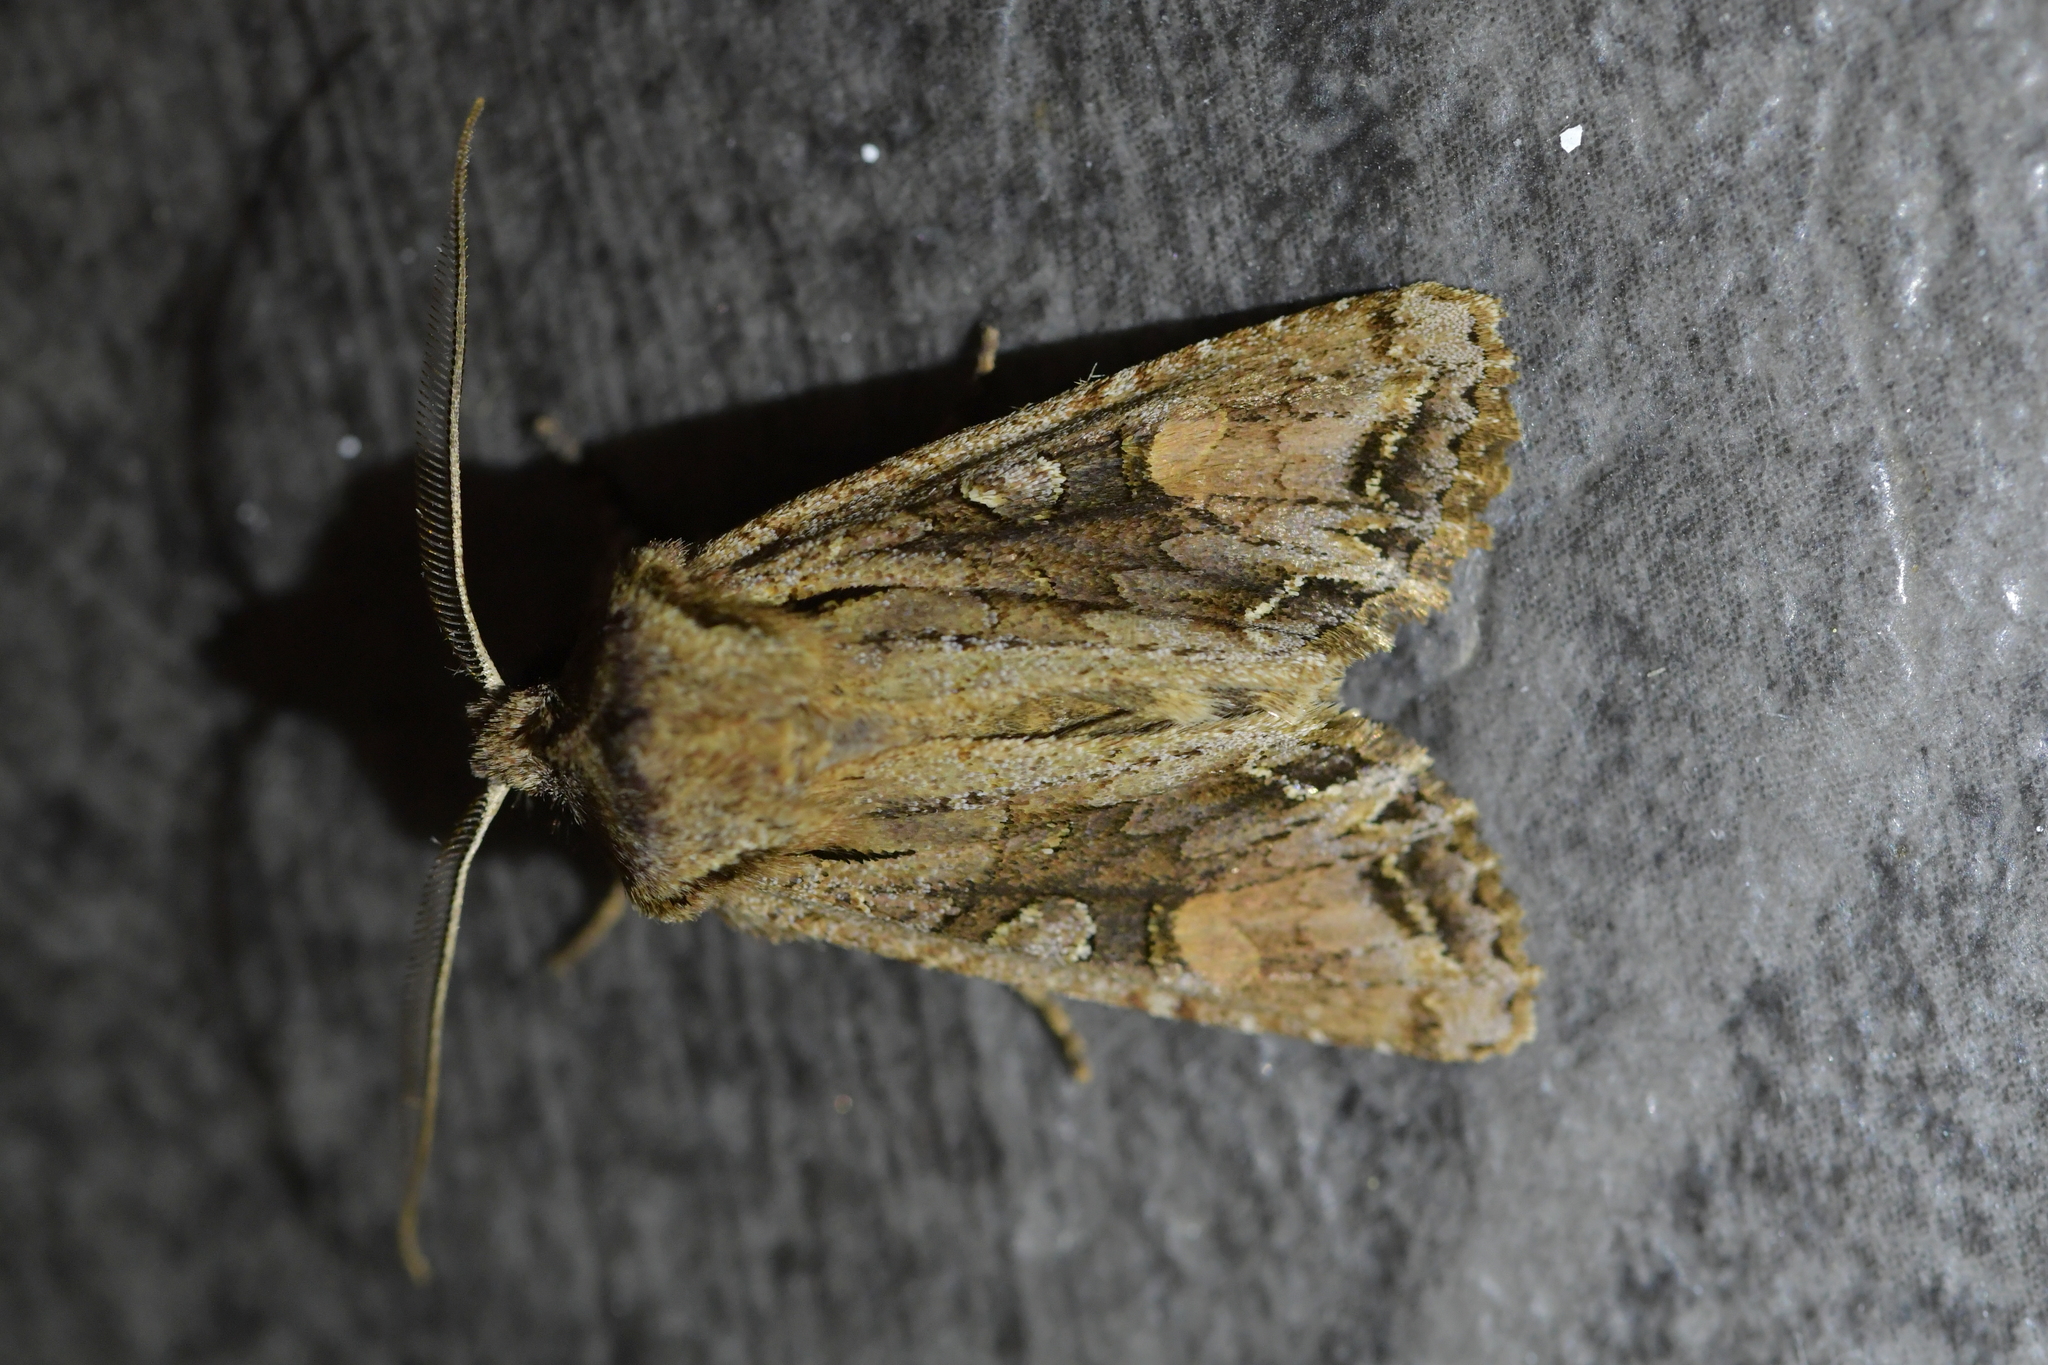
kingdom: Animalia
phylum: Arthropoda
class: Insecta
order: Lepidoptera
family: Noctuidae
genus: Ichneutica
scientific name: Ichneutica
